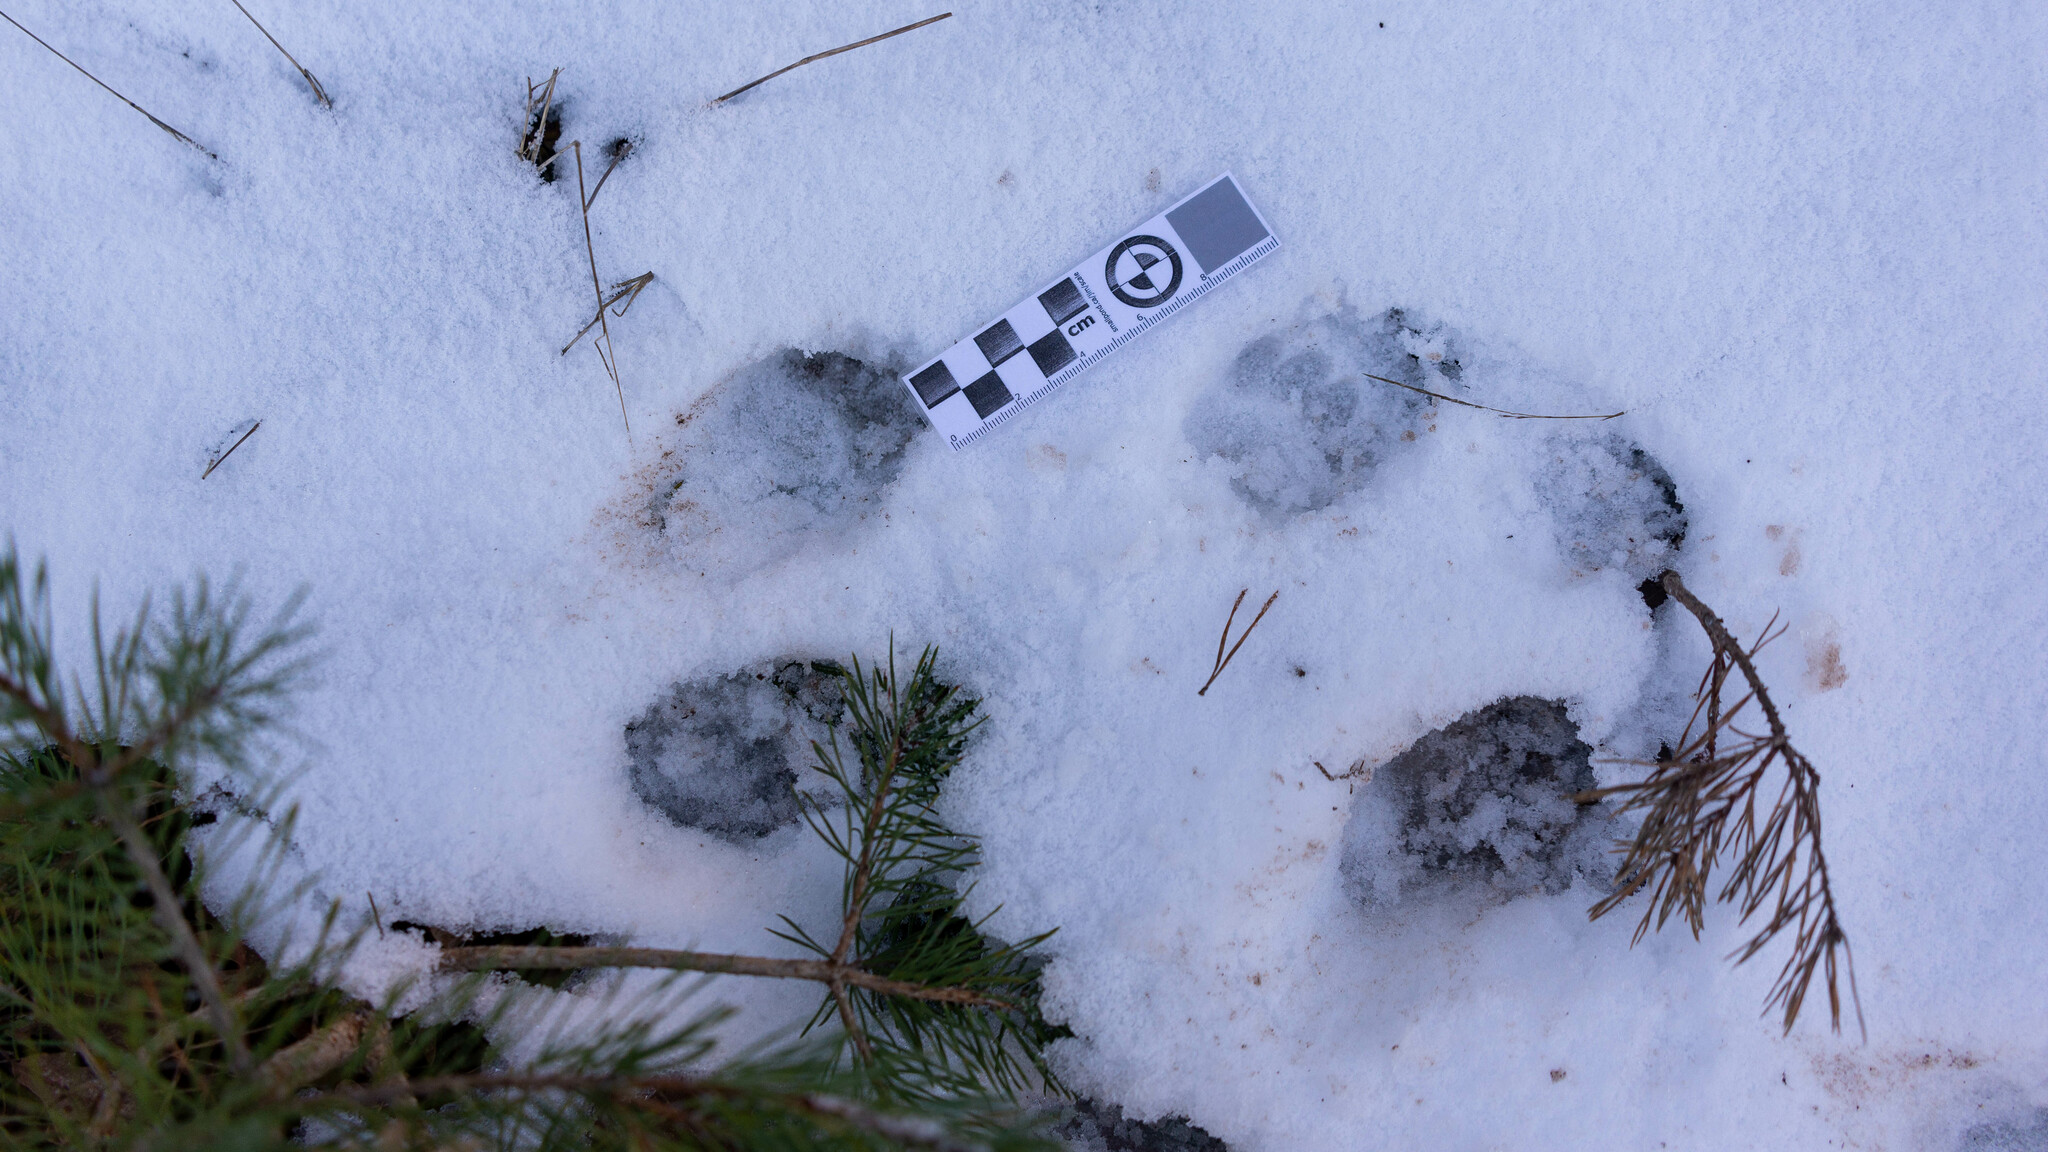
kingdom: Animalia
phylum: Chordata
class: Mammalia
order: Carnivora
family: Mustelidae
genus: Meles
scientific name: Meles meles
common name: Eurasian badger
